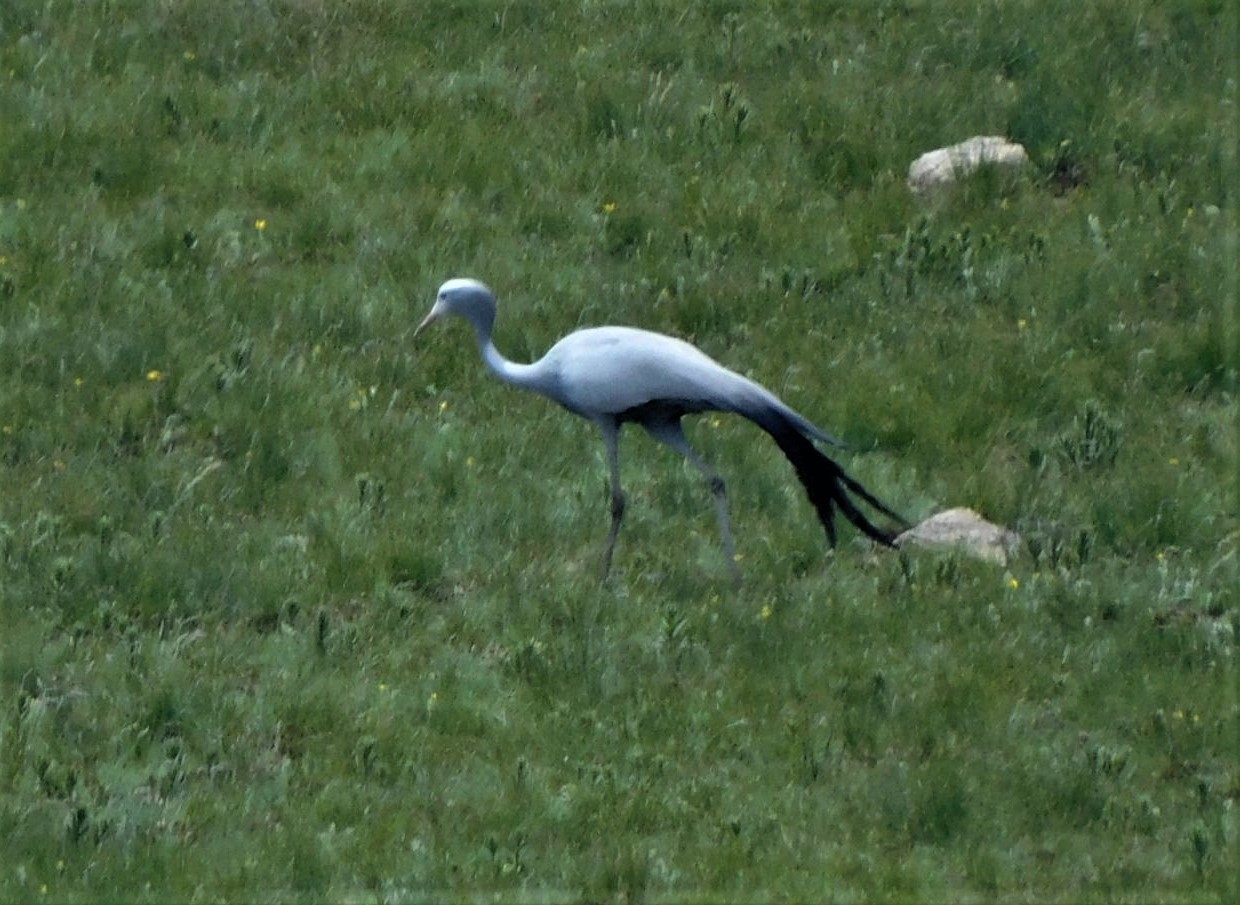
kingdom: Animalia
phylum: Chordata
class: Aves
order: Gruiformes
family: Gruidae
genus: Anthropoides
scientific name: Anthropoides paradiseus
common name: Blue crane
